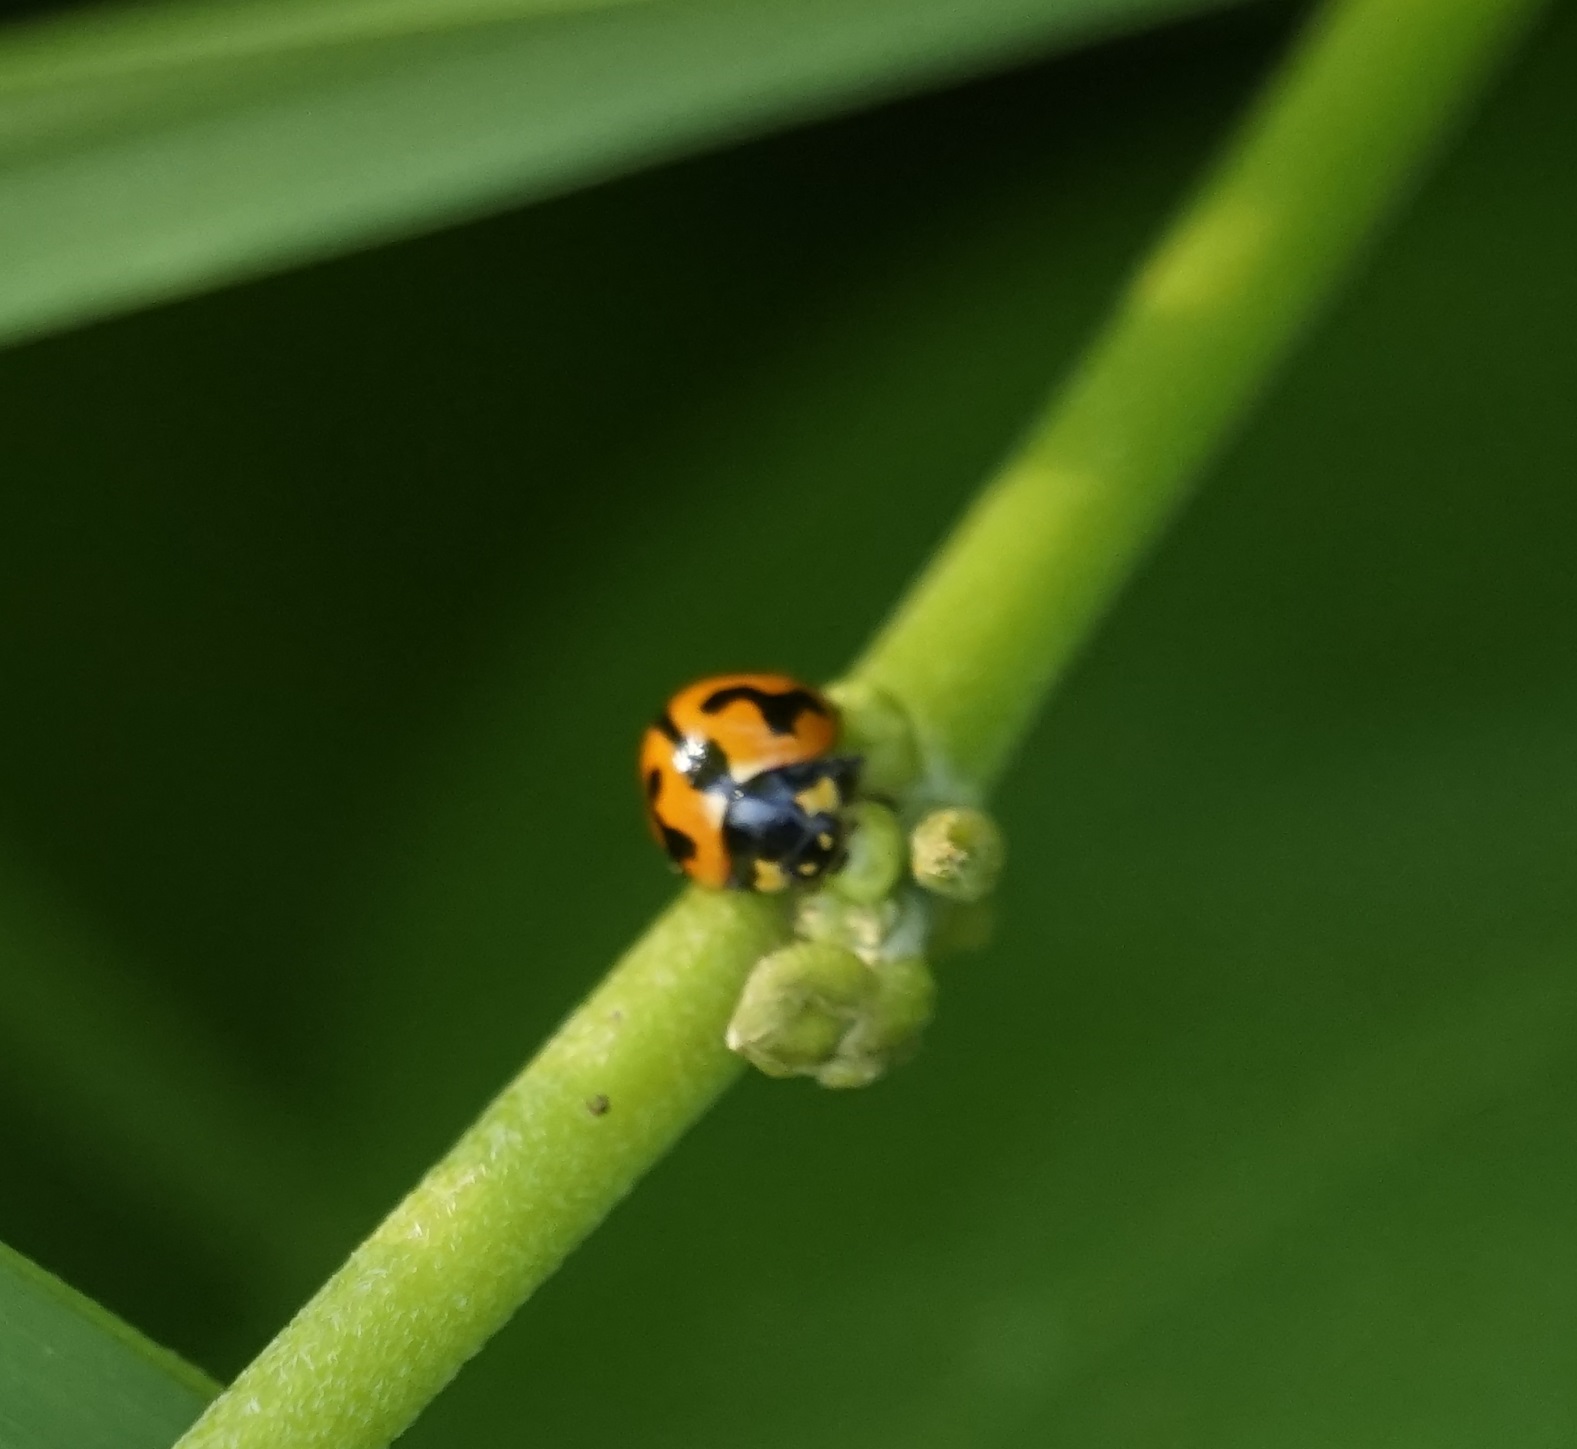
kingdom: Animalia
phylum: Arthropoda
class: Insecta
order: Coleoptera
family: Coccinellidae
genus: Coccinella
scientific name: Coccinella transversalis
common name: Transverse lady beetle
